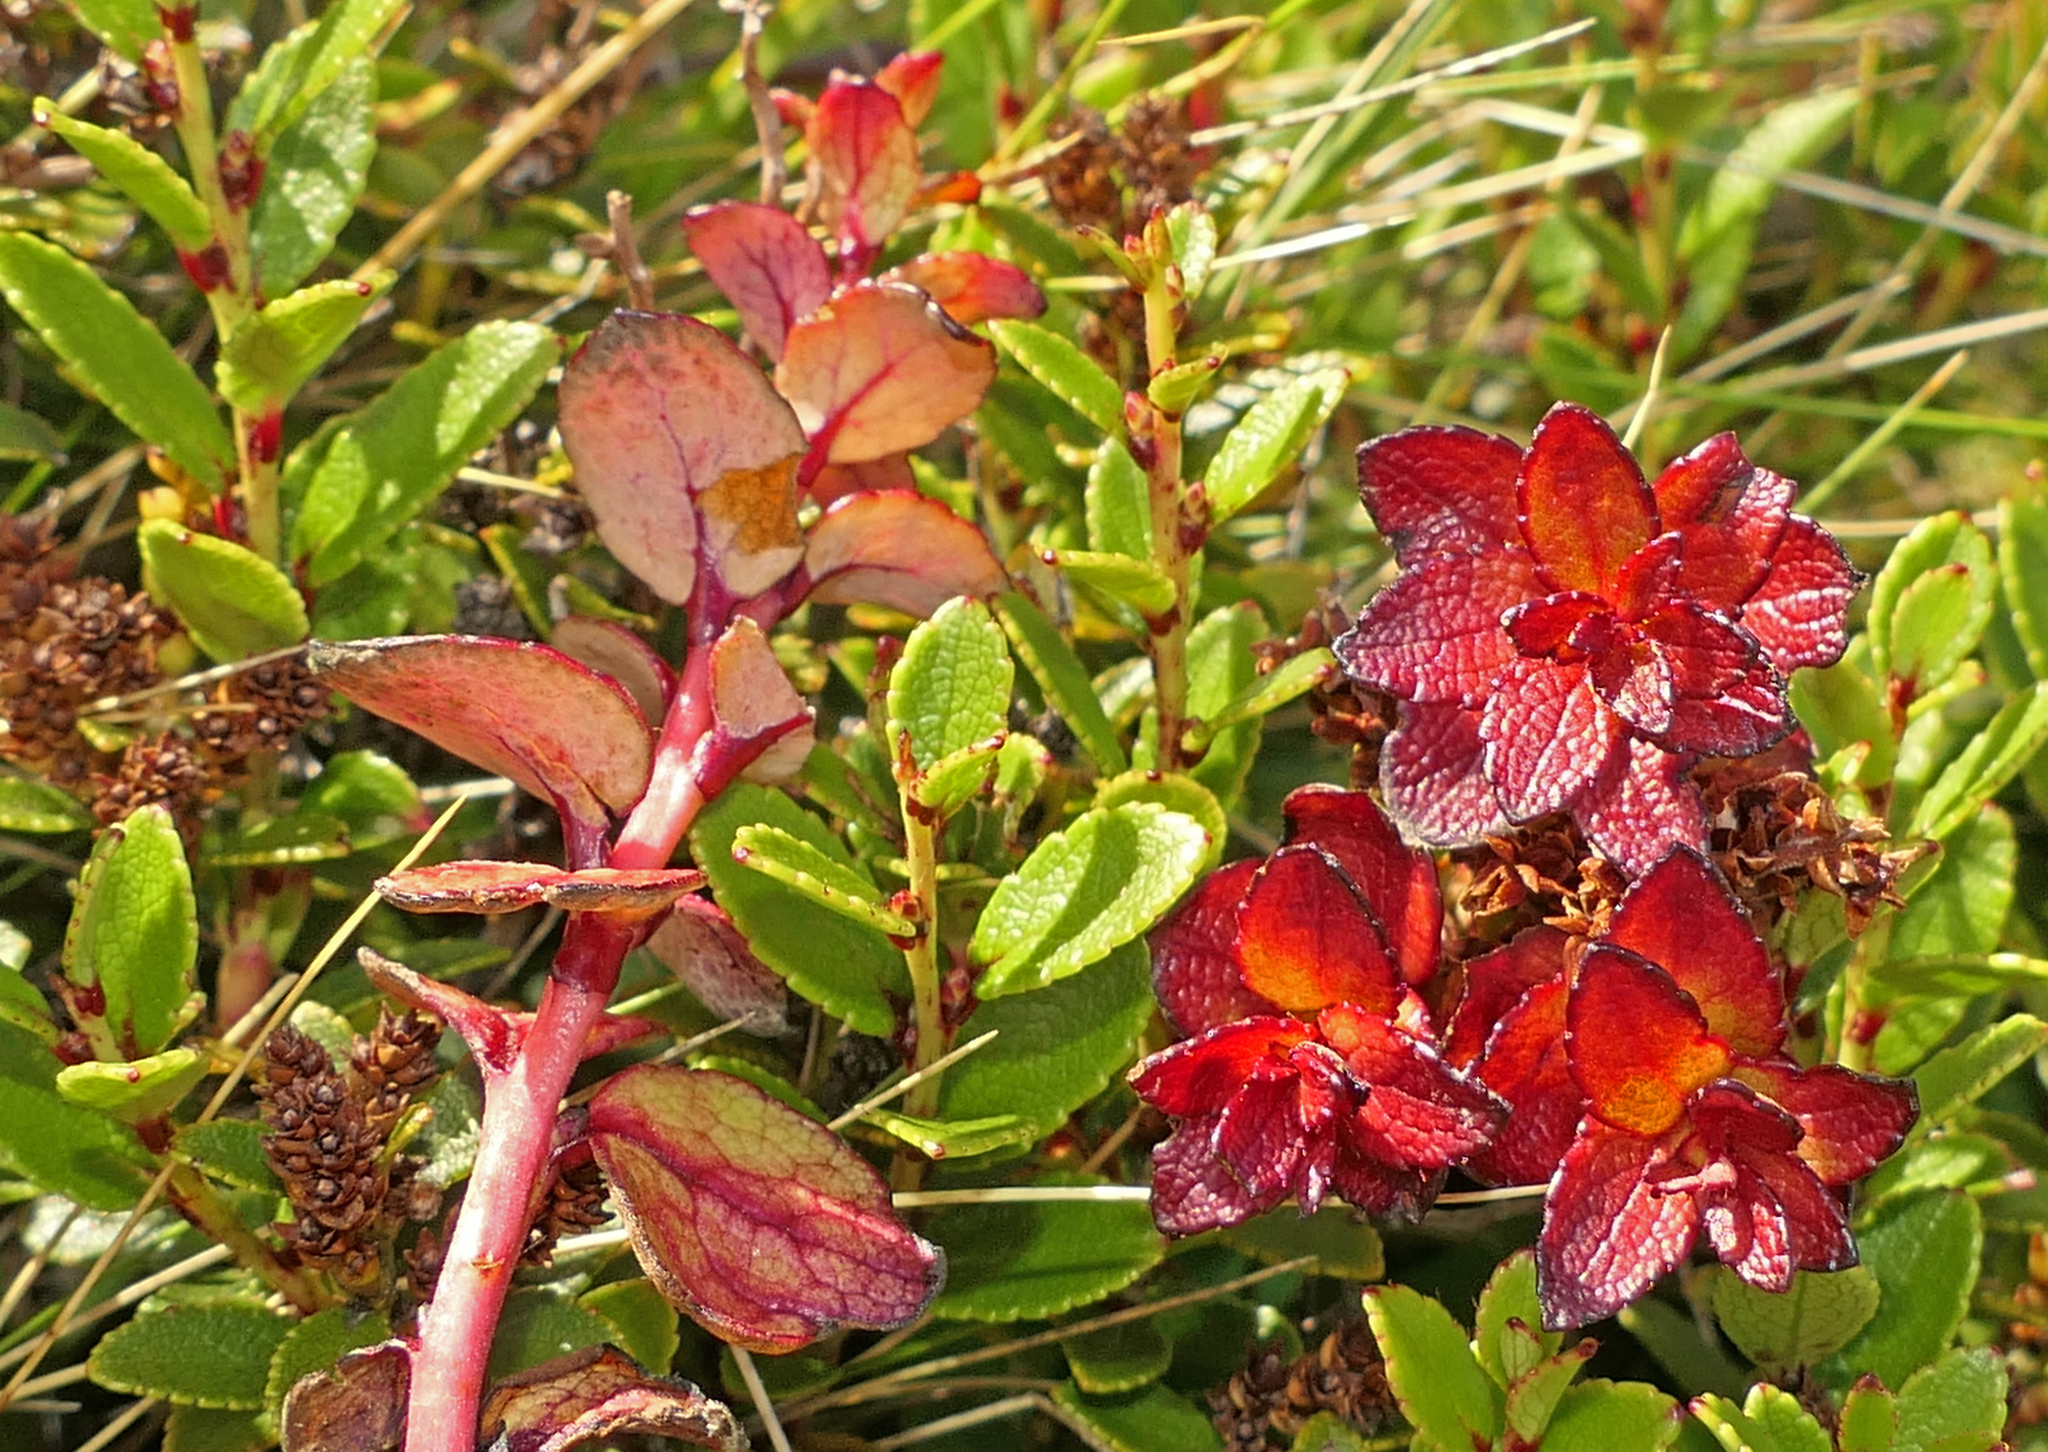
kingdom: Fungi
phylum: Basidiomycota
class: Exobasidiomycetes
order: Exobasidiales
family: Exobasidiaceae
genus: Exobasidium
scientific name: Exobasidium gaultheriae
